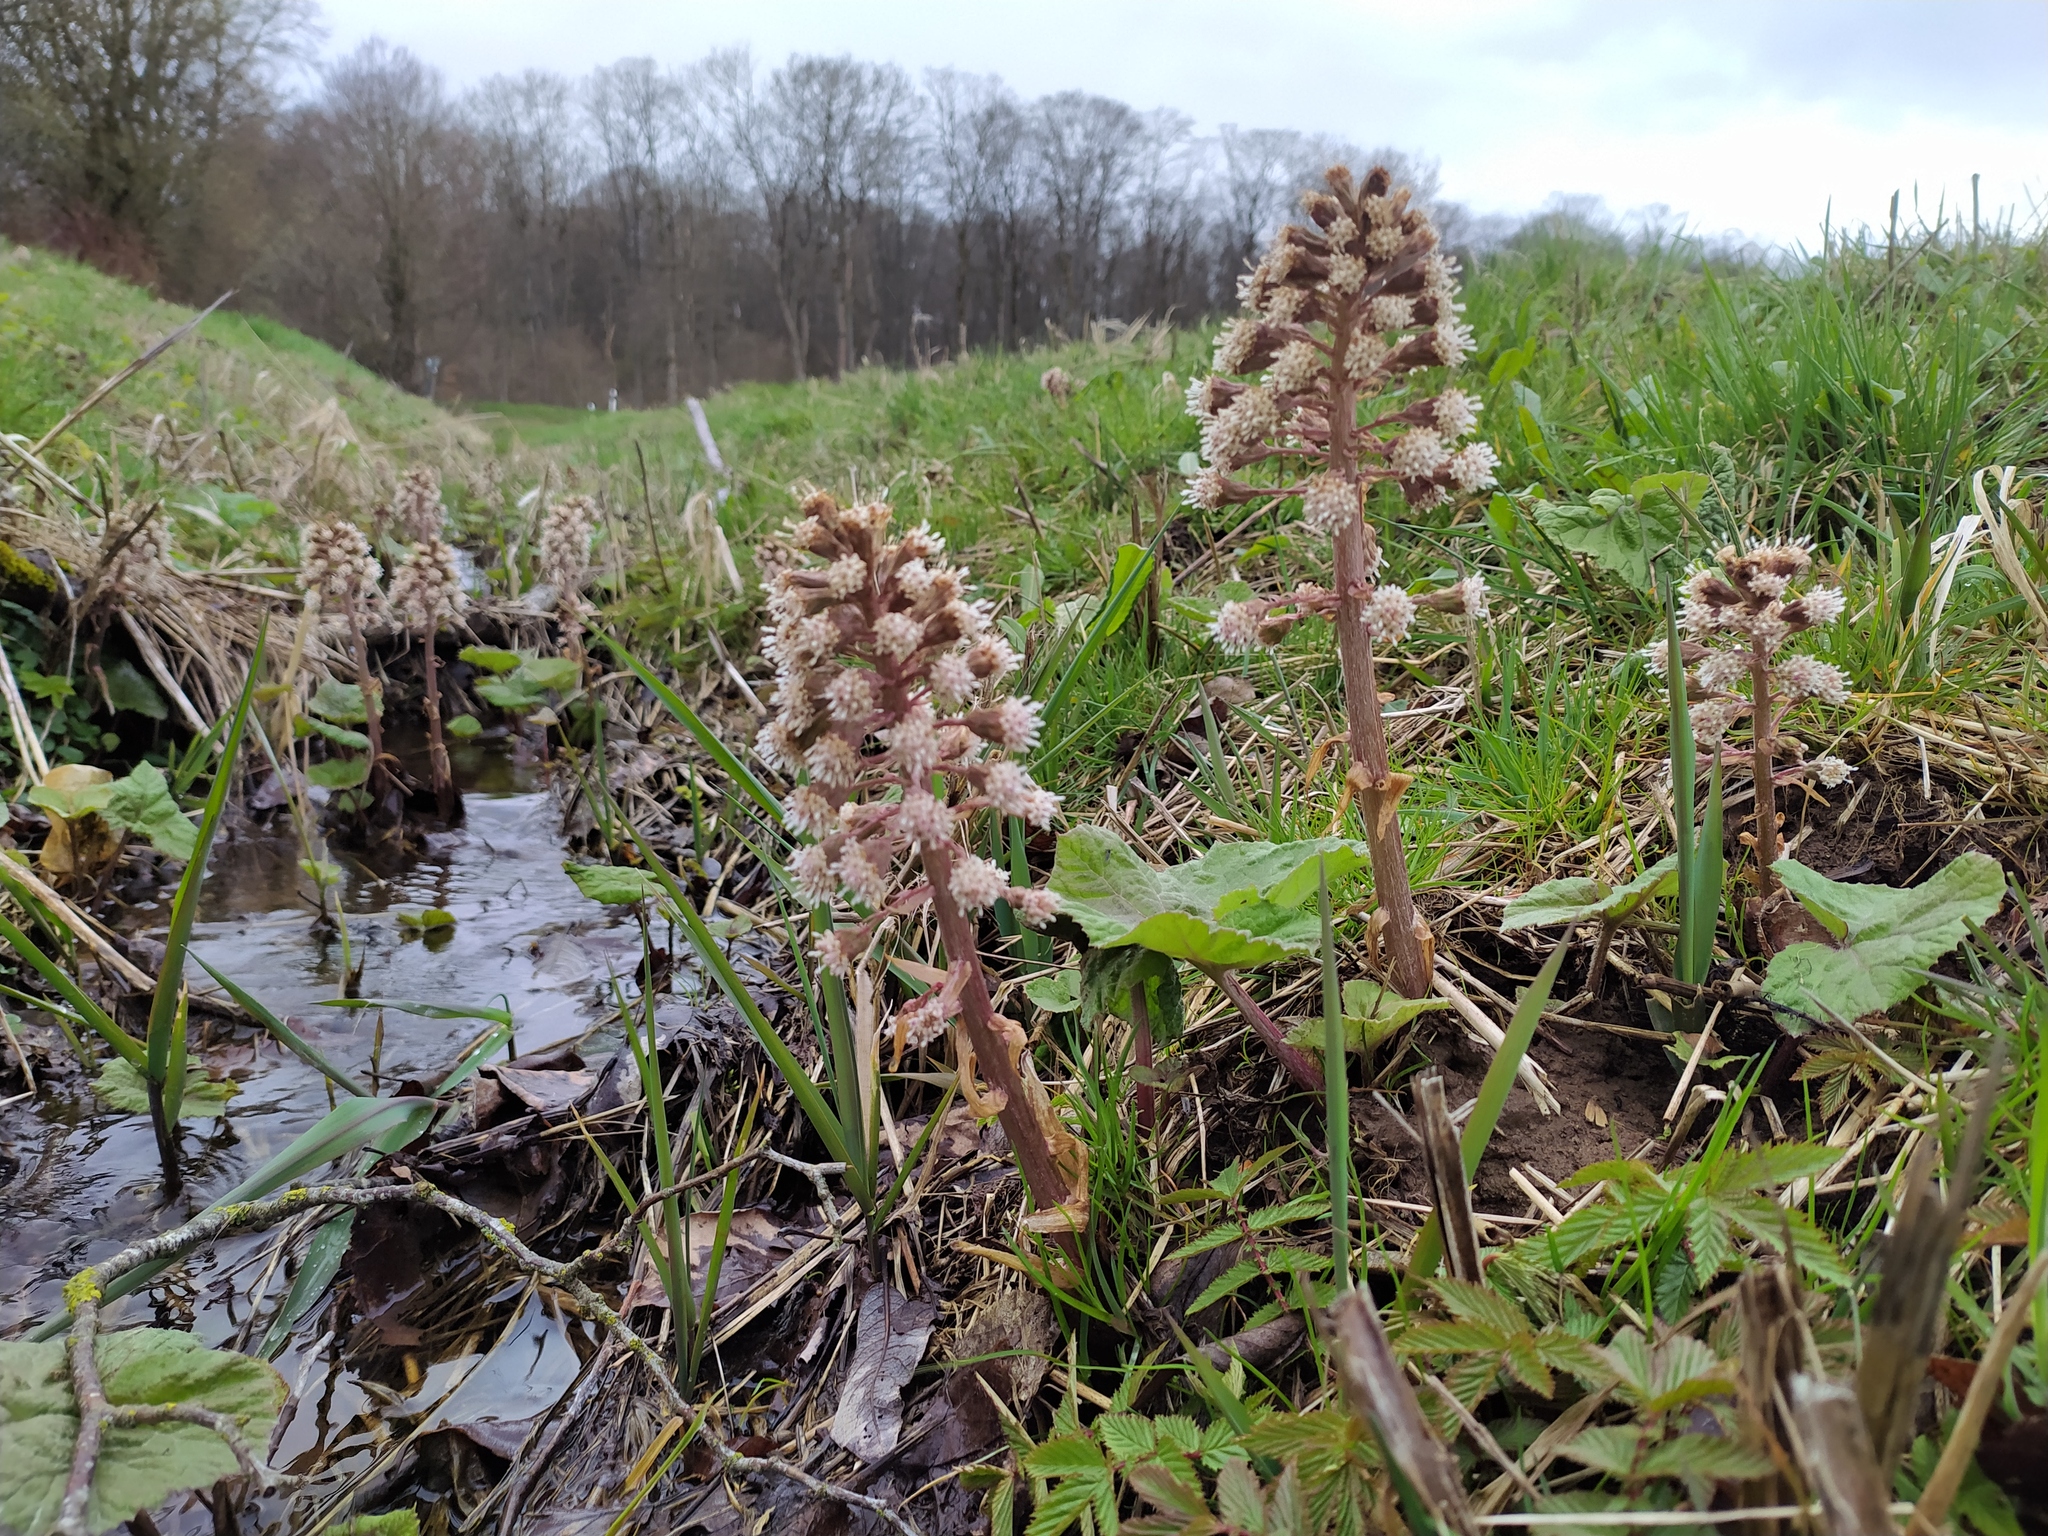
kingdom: Plantae
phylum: Tracheophyta
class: Magnoliopsida
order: Asterales
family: Asteraceae
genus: Petasites
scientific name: Petasites hybridus
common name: Butterbur
